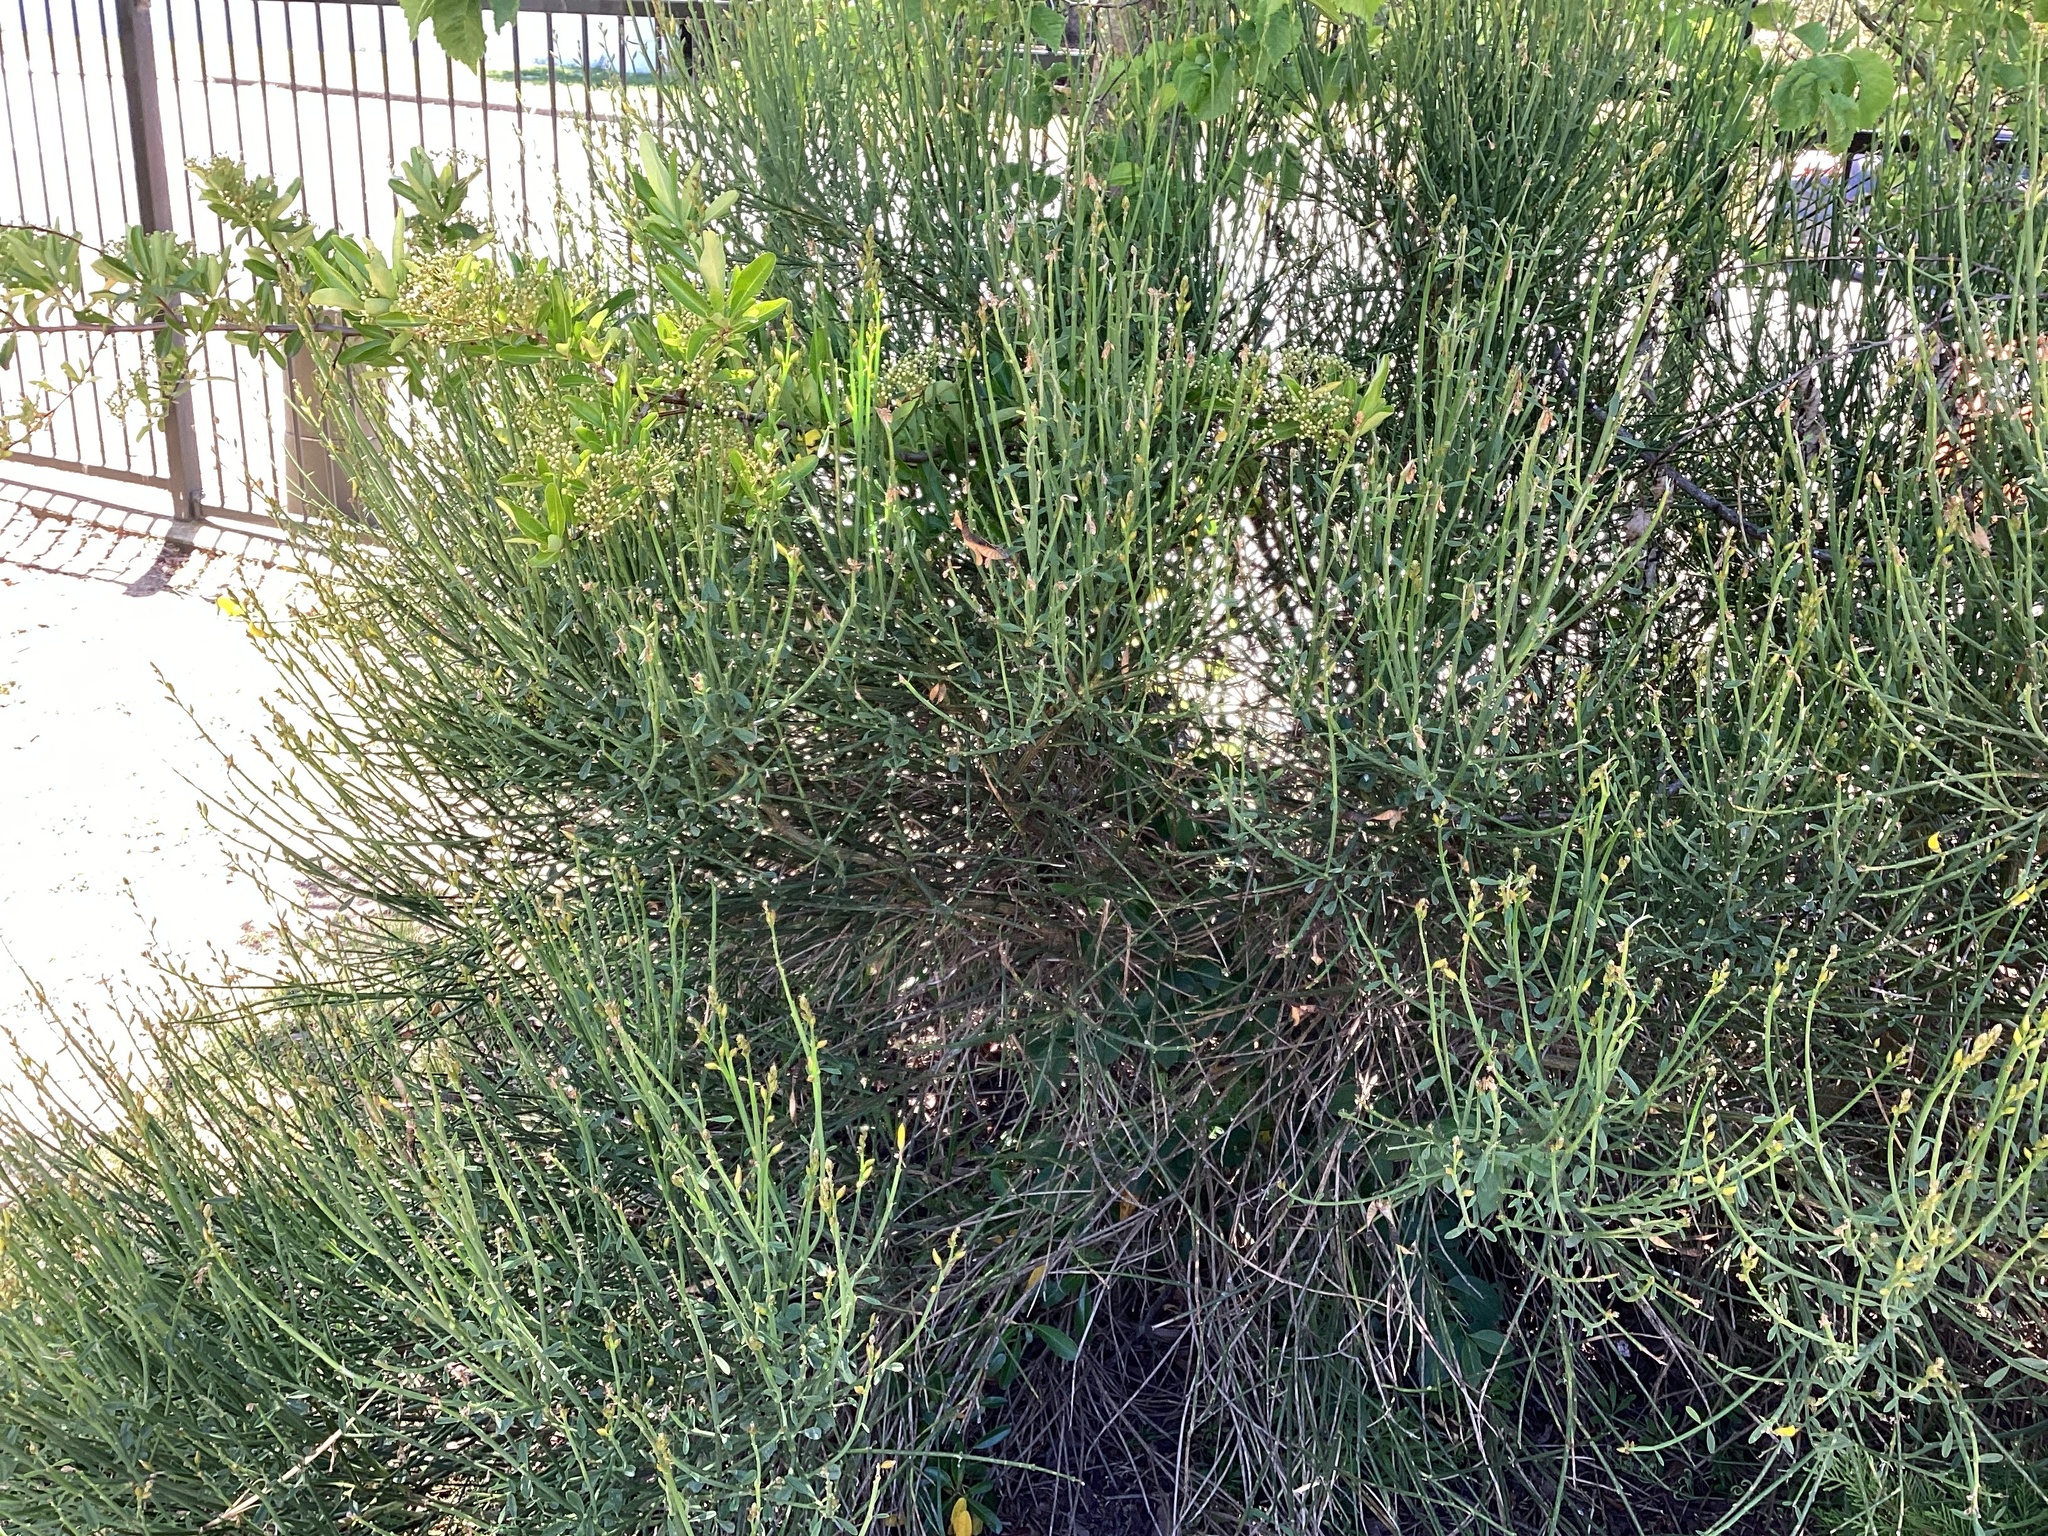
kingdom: Plantae
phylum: Tracheophyta
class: Magnoliopsida
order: Fabales
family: Fabaceae
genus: Cytisus
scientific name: Cytisus scoparius
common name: Scotch broom
